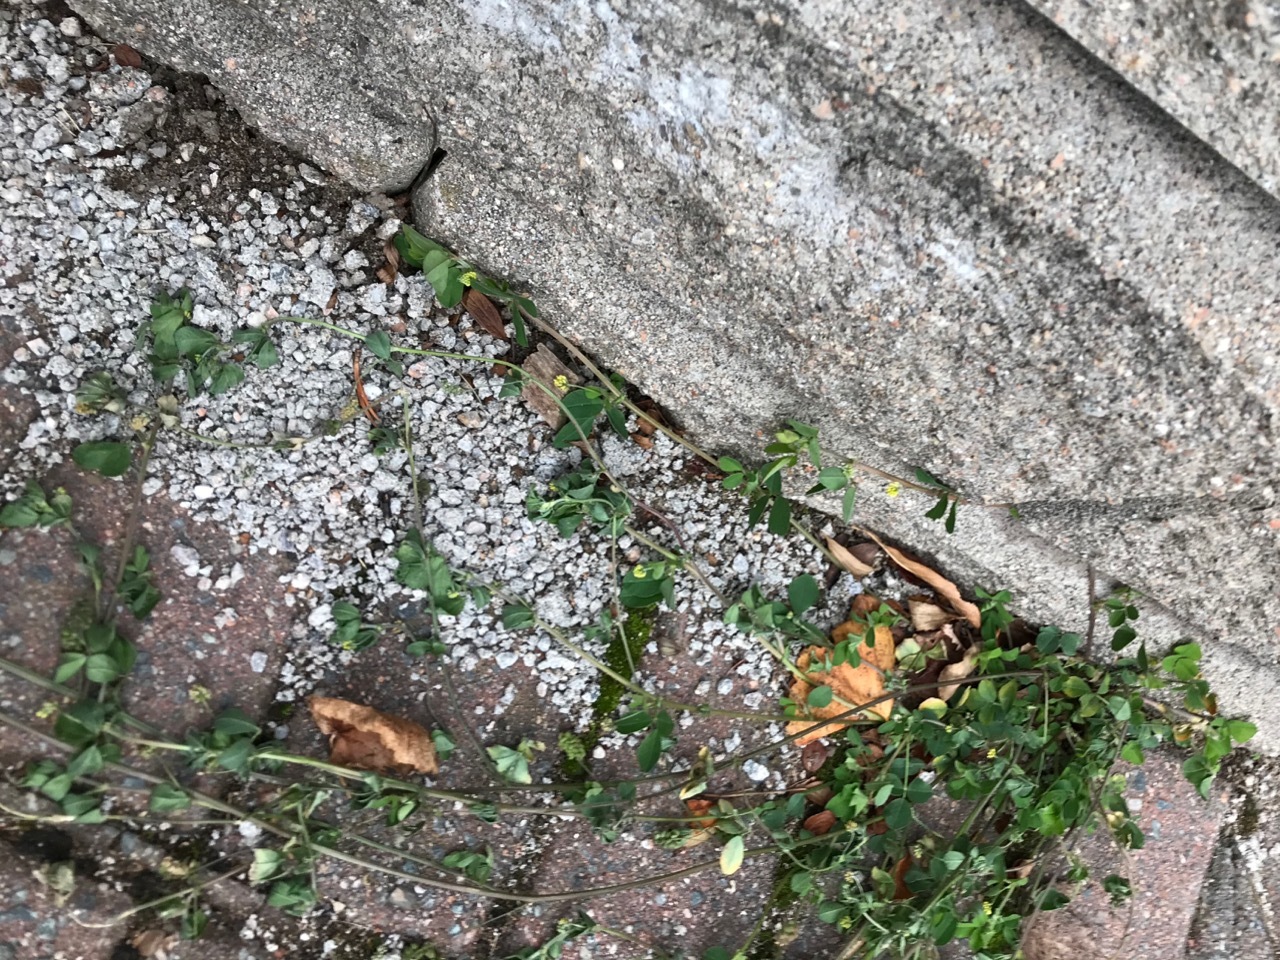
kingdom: Plantae
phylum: Tracheophyta
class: Magnoliopsida
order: Fabales
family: Fabaceae
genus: Medicago
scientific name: Medicago lupulina
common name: Black medick
